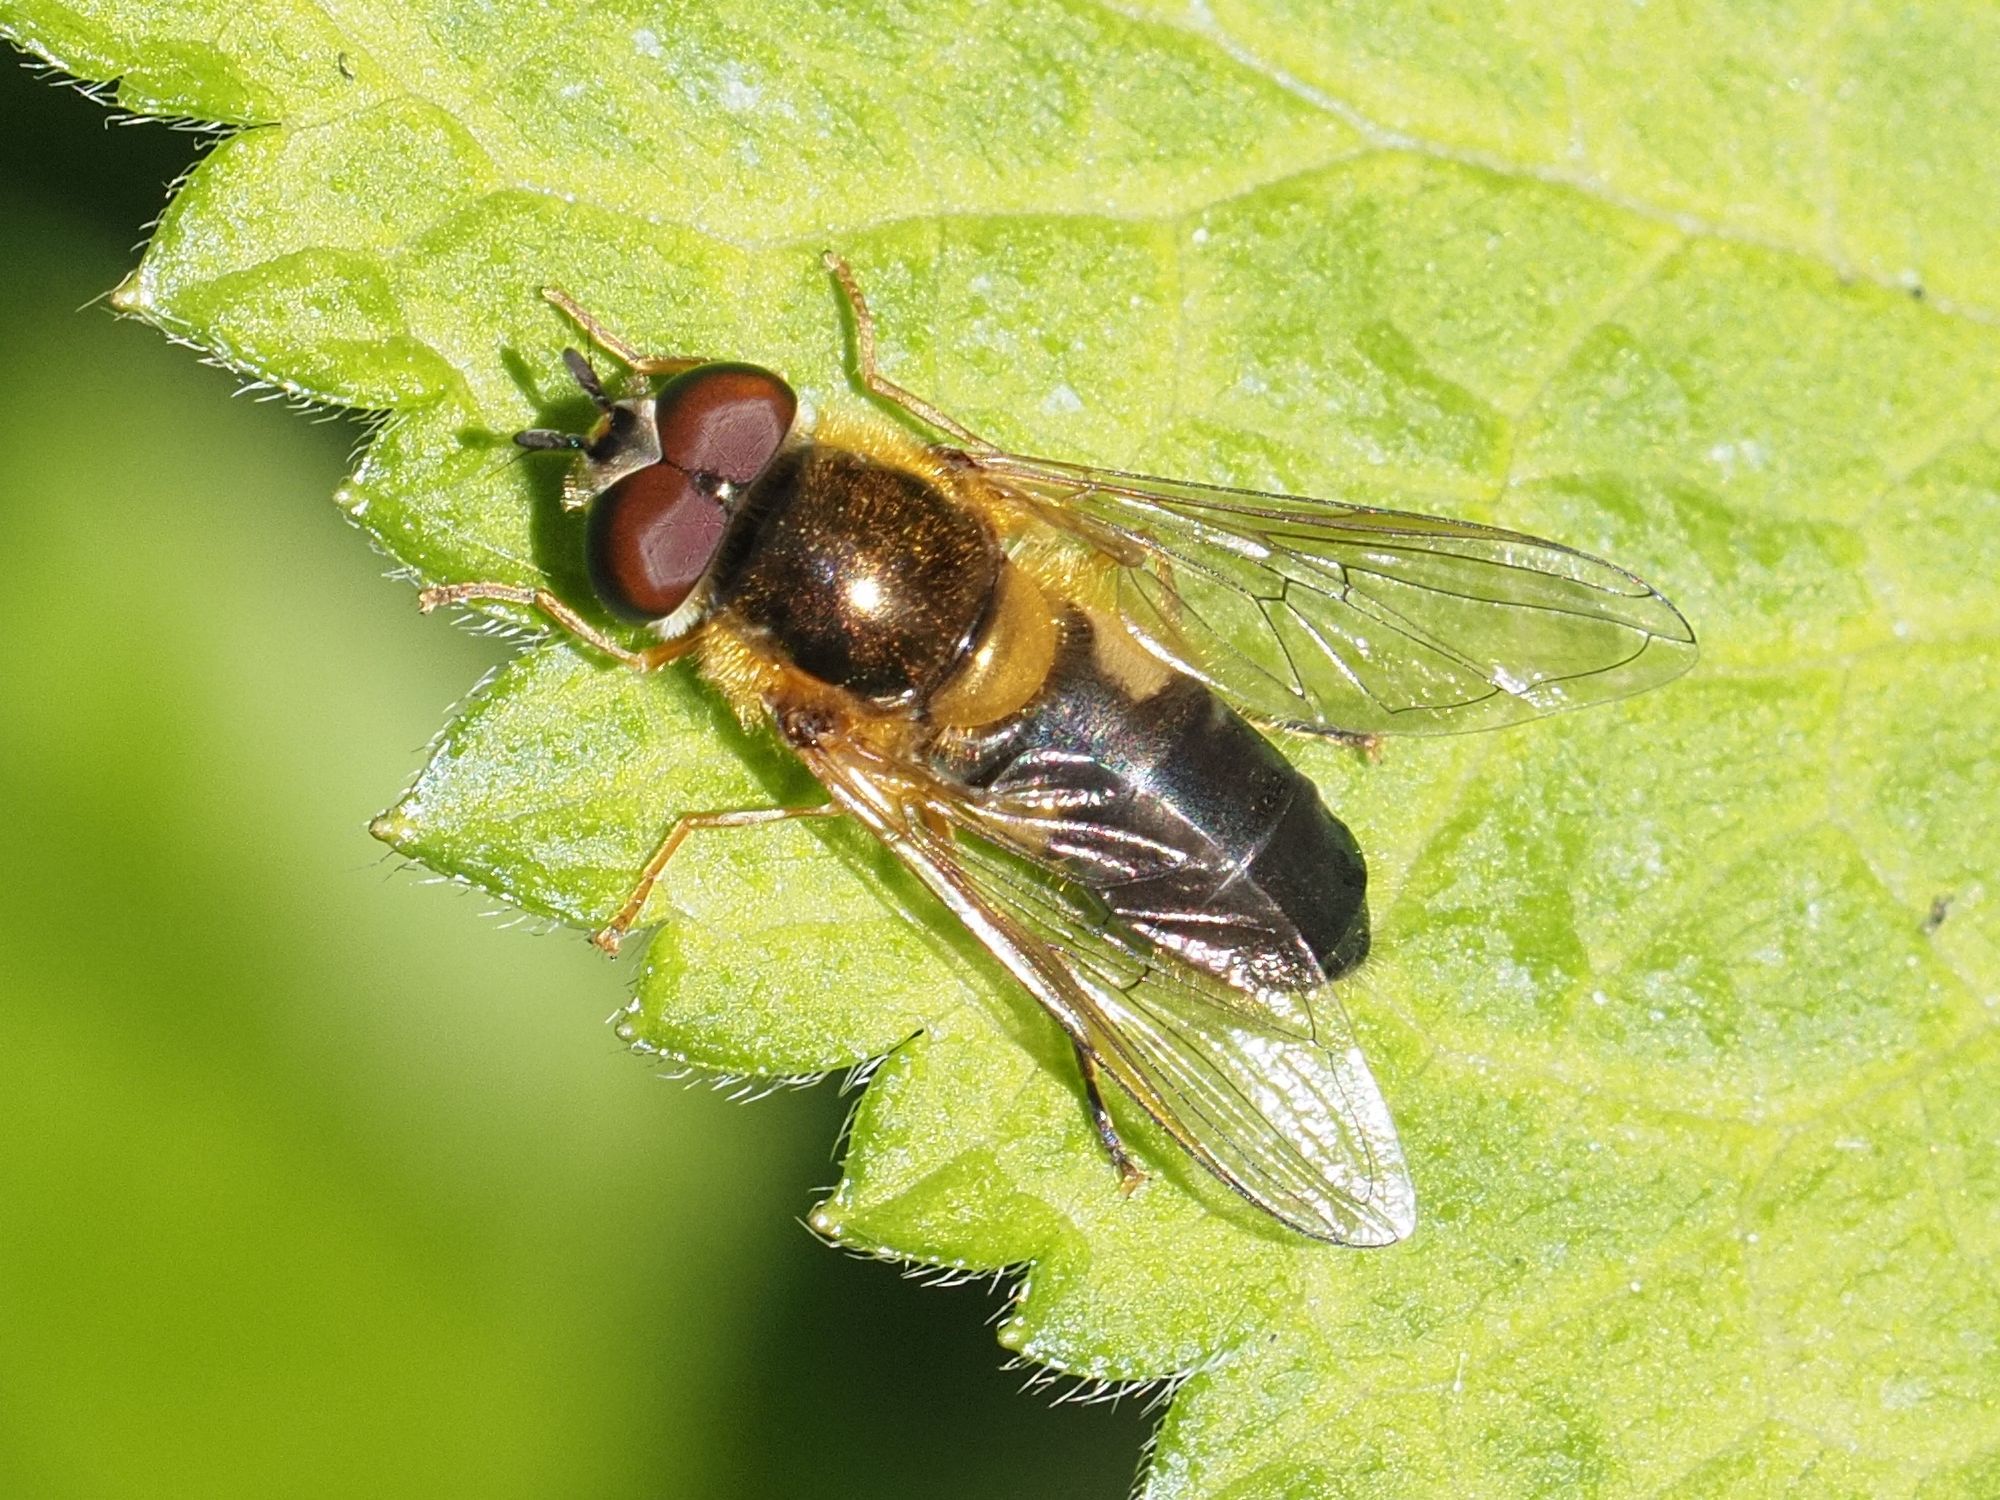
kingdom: Animalia
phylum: Arthropoda
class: Insecta
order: Diptera
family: Syrphidae
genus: Epistrophe
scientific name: Epistrophe eligans
